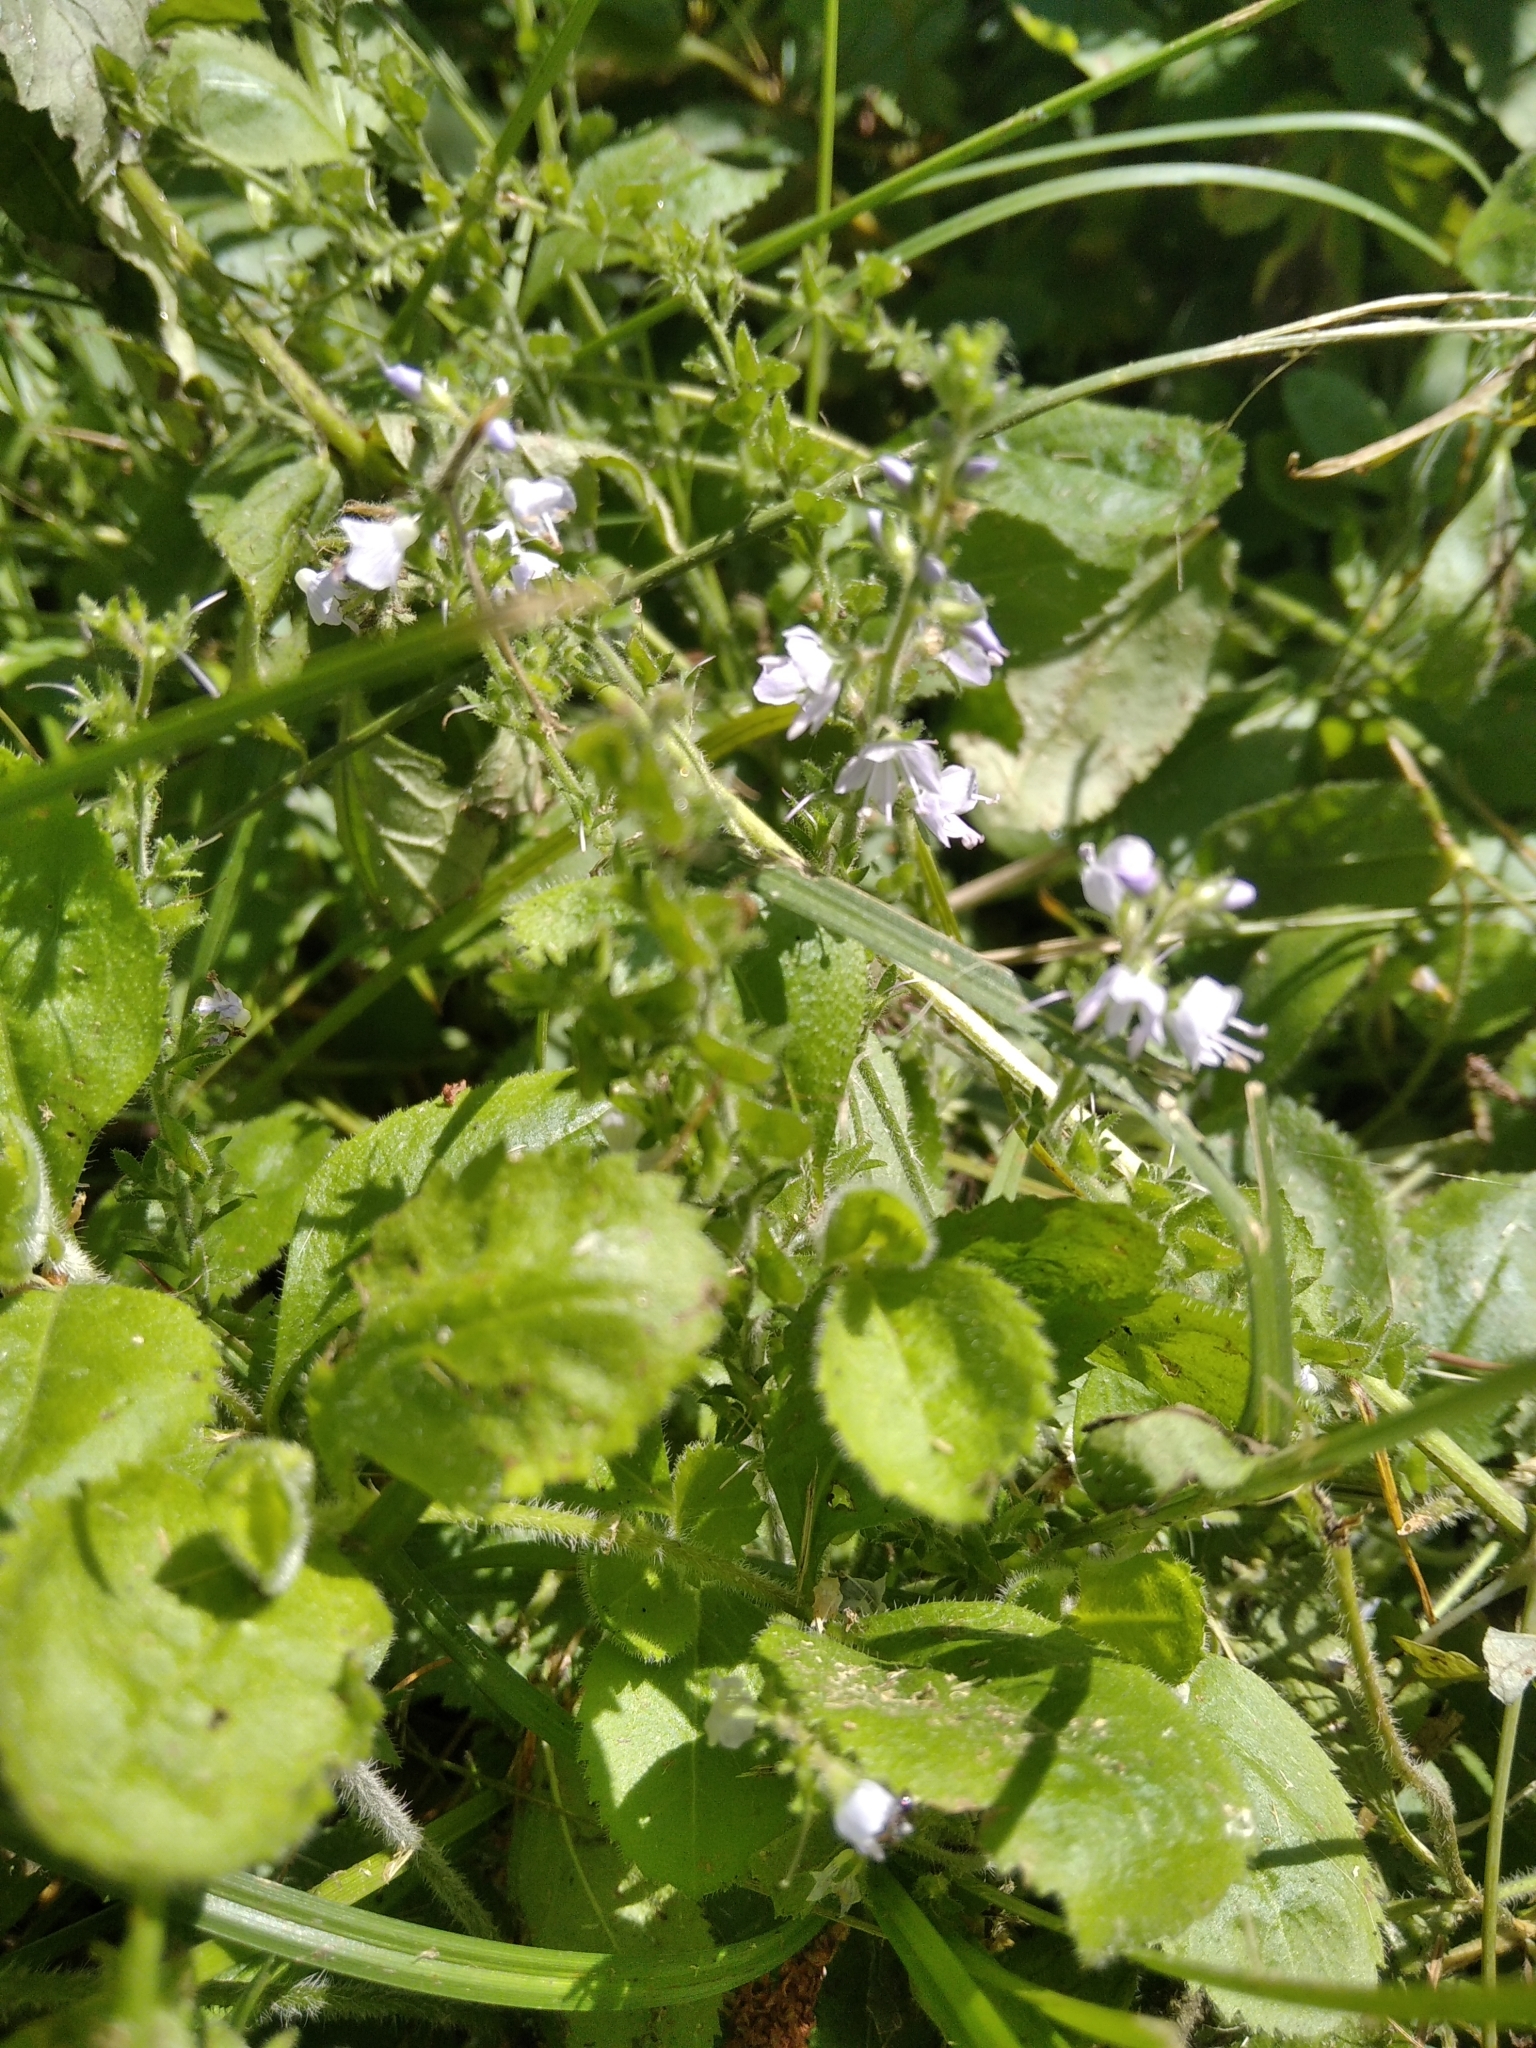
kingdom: Plantae
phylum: Tracheophyta
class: Magnoliopsida
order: Lamiales
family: Plantaginaceae
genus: Veronica
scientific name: Veronica officinalis
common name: Common speedwell
